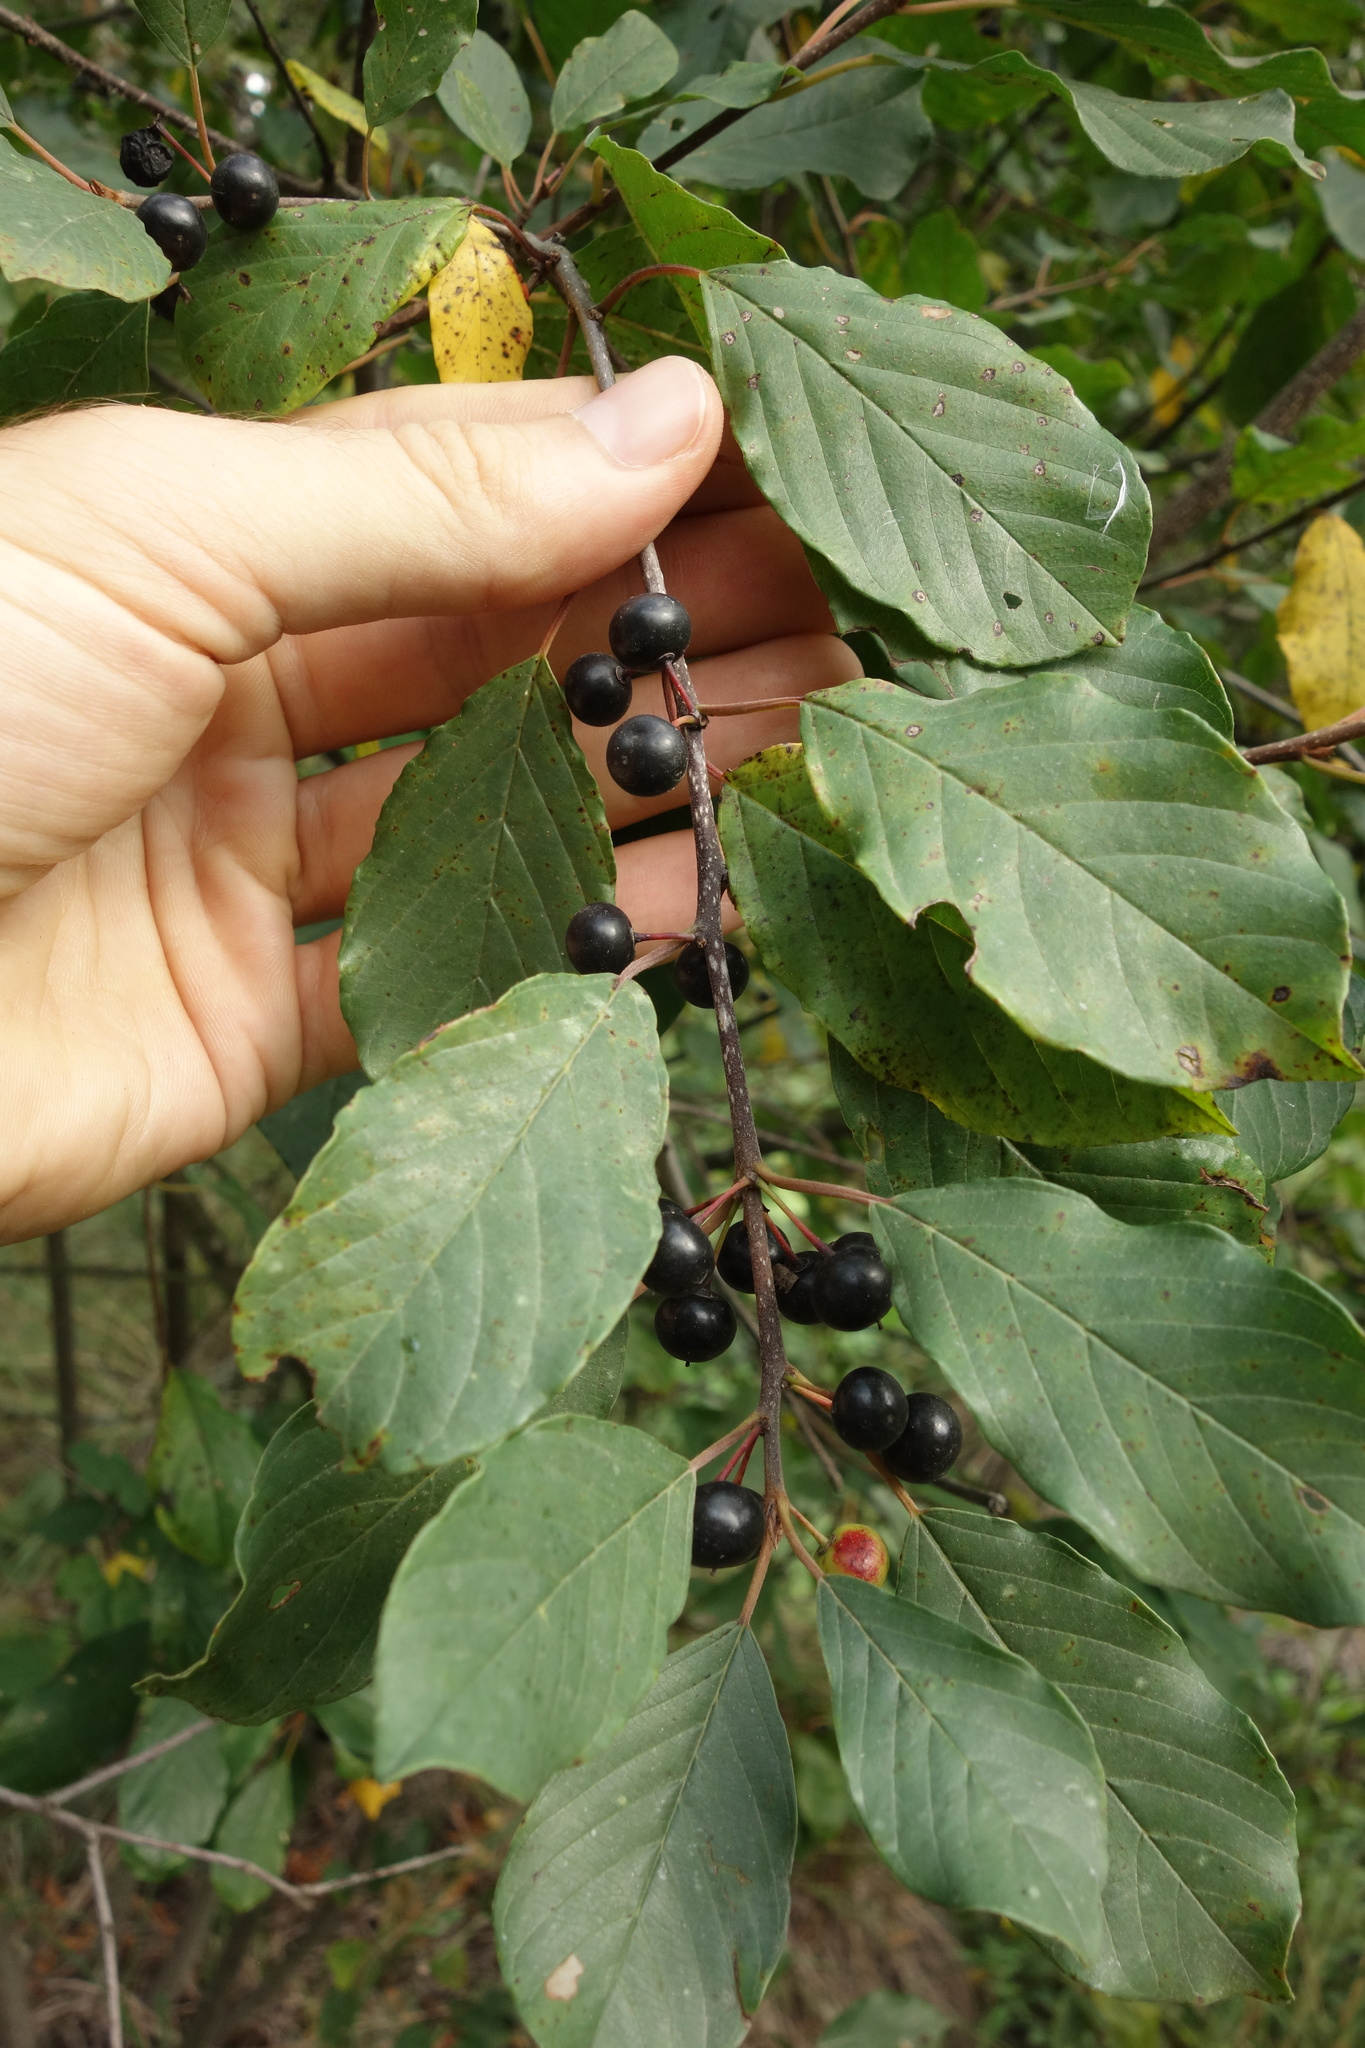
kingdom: Plantae
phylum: Tracheophyta
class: Magnoliopsida
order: Rosales
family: Rhamnaceae
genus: Frangula
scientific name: Frangula alnus
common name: Alder buckthorn
